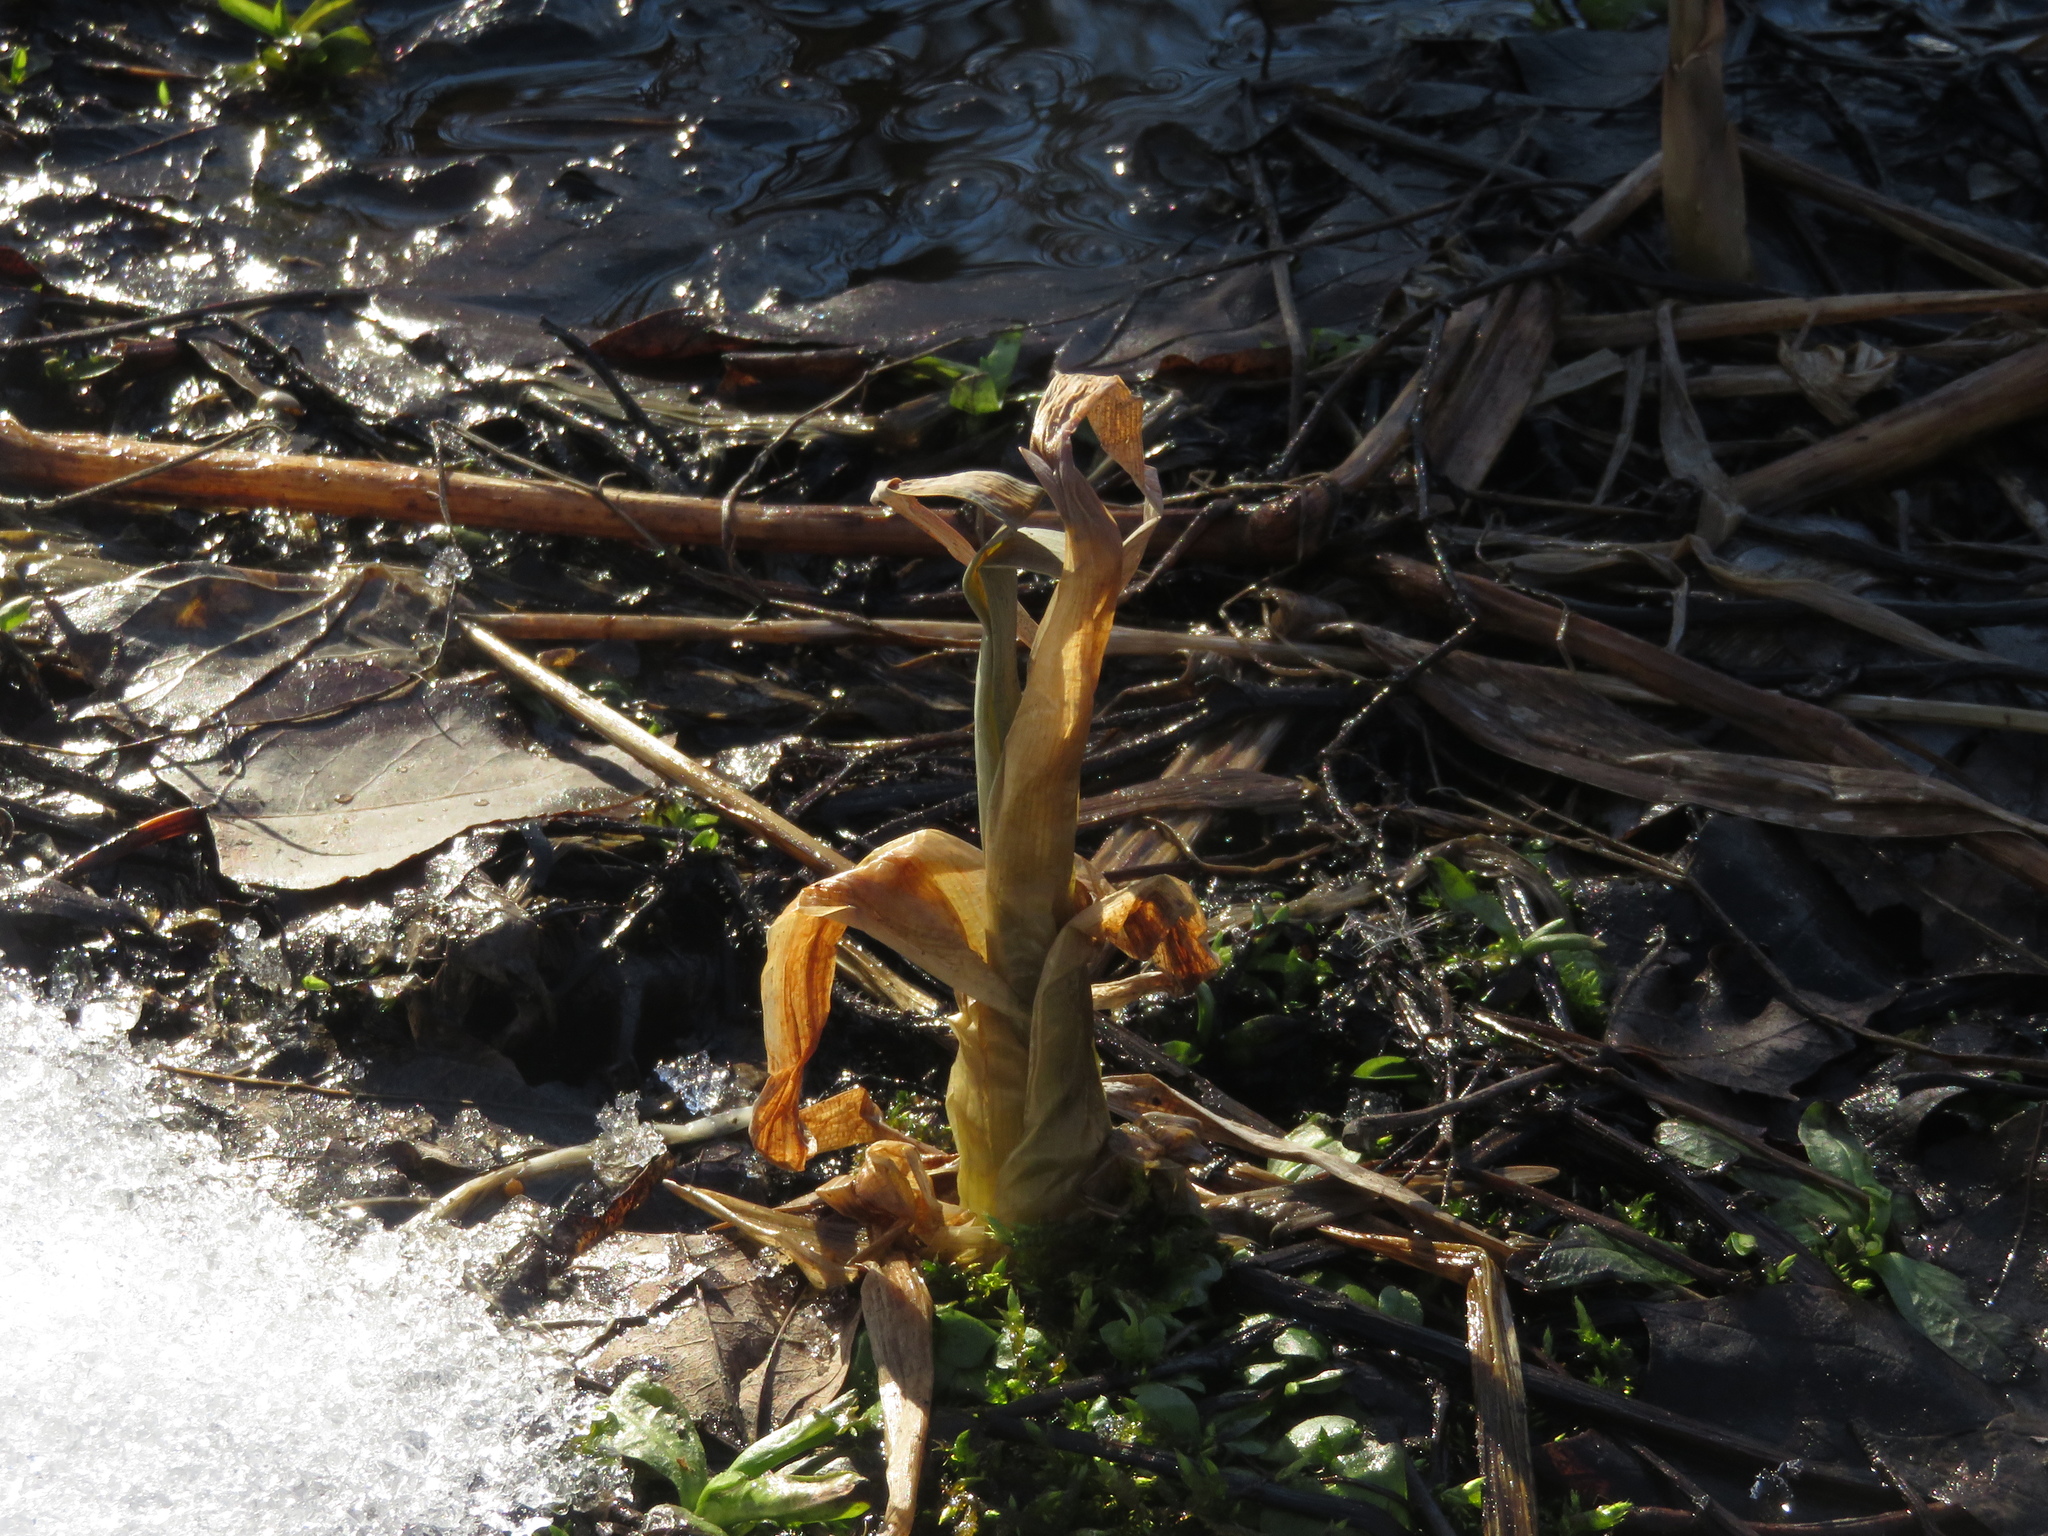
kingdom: Plantae
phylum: Tracheophyta
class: Liliopsida
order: Poales
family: Typhaceae
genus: Typha
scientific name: Typha
